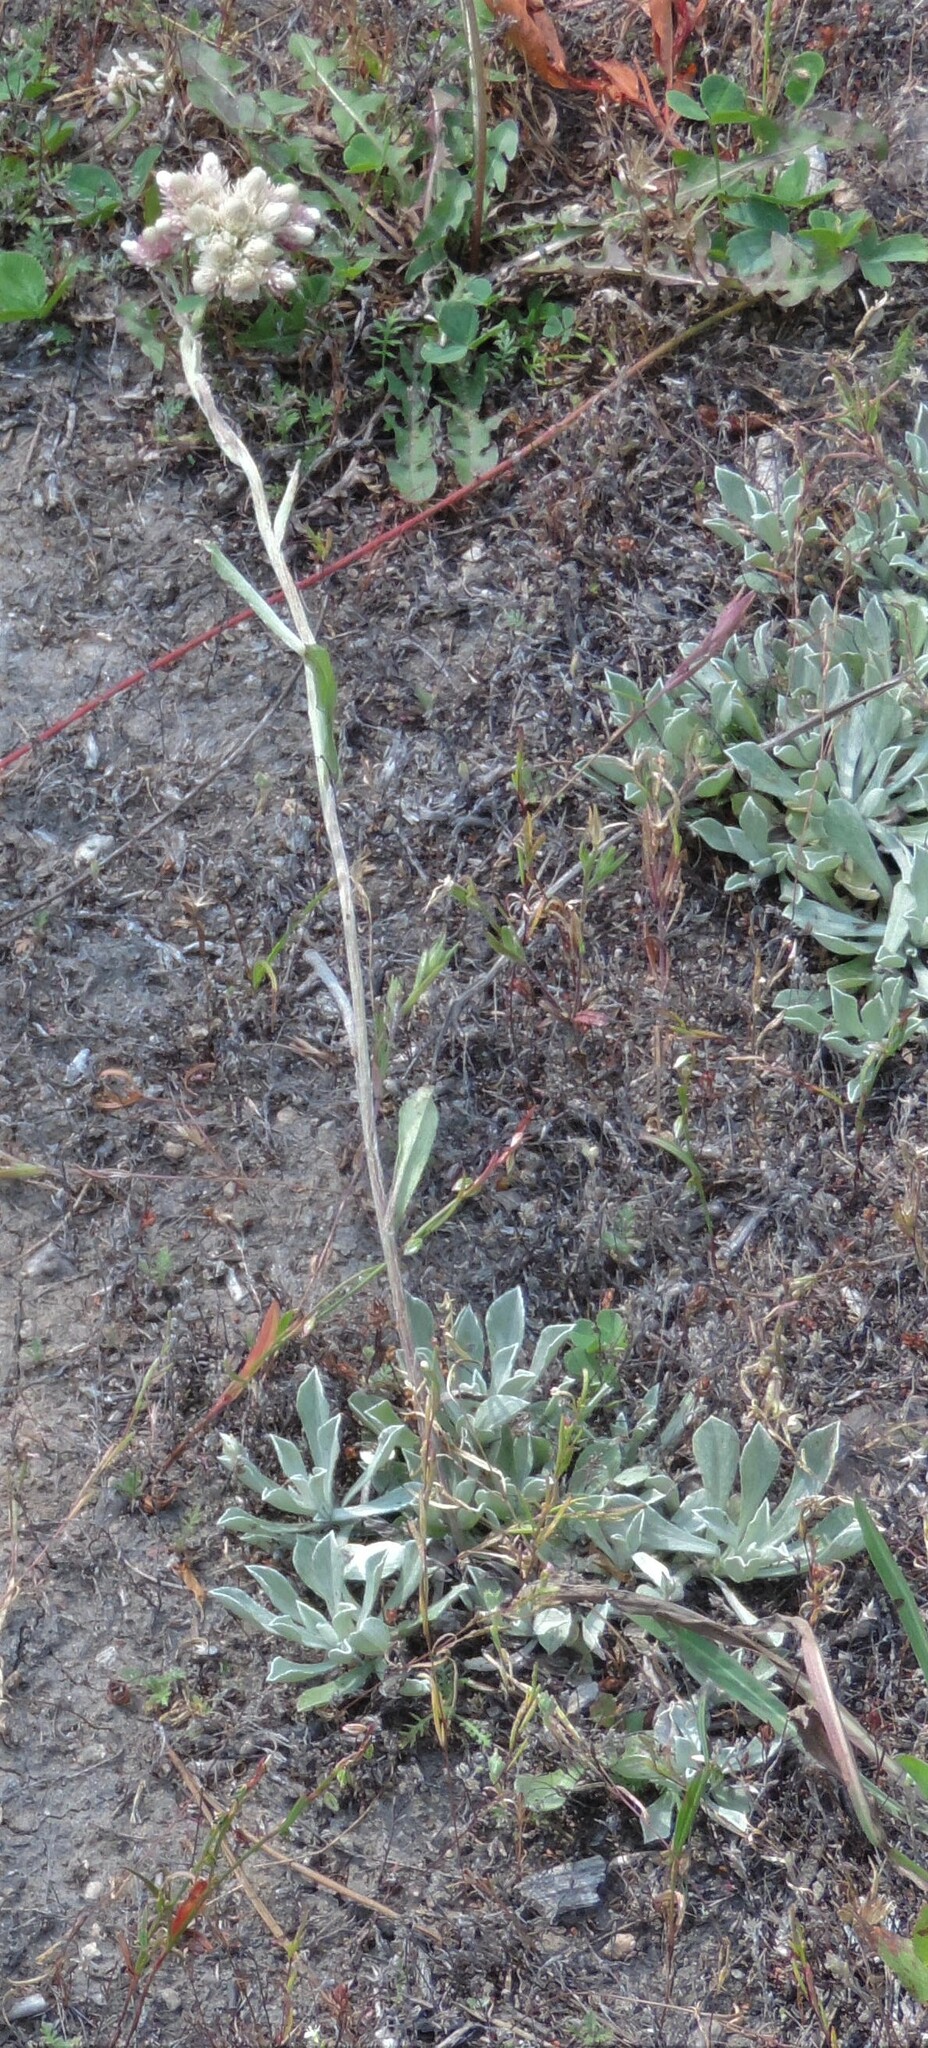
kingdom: Plantae
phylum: Tracheophyta
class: Magnoliopsida
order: Asterales
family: Asteraceae
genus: Antennaria
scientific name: Antennaria rosea
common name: Rosy pussytoes
